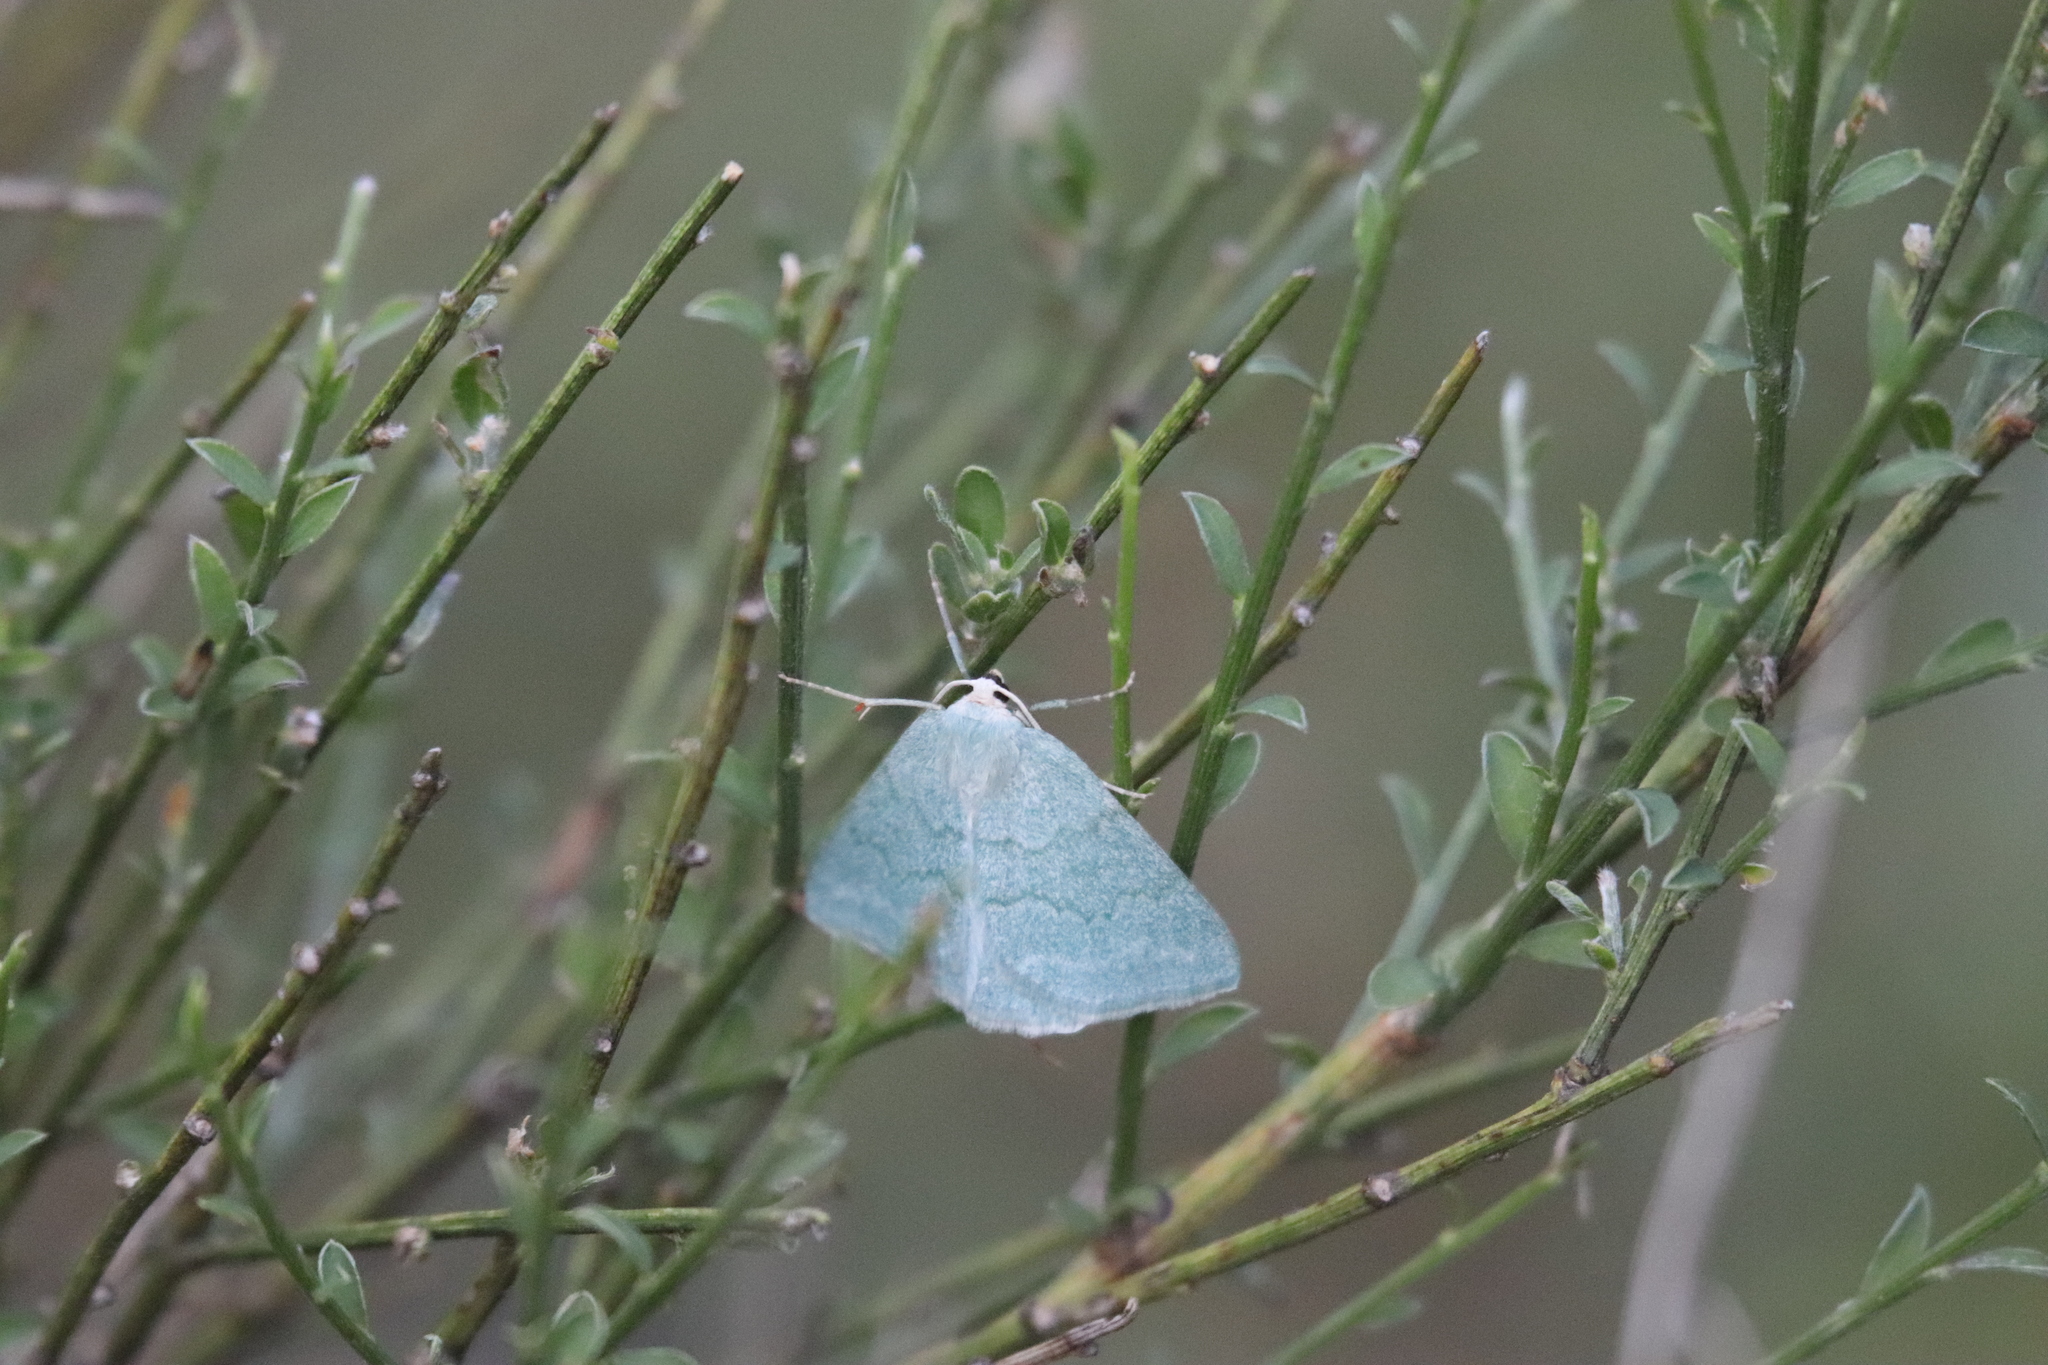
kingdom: Animalia
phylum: Arthropoda
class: Insecta
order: Lepidoptera
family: Geometridae
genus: Pseudoterpna
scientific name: Pseudoterpna pruinata
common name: Grass emerald
